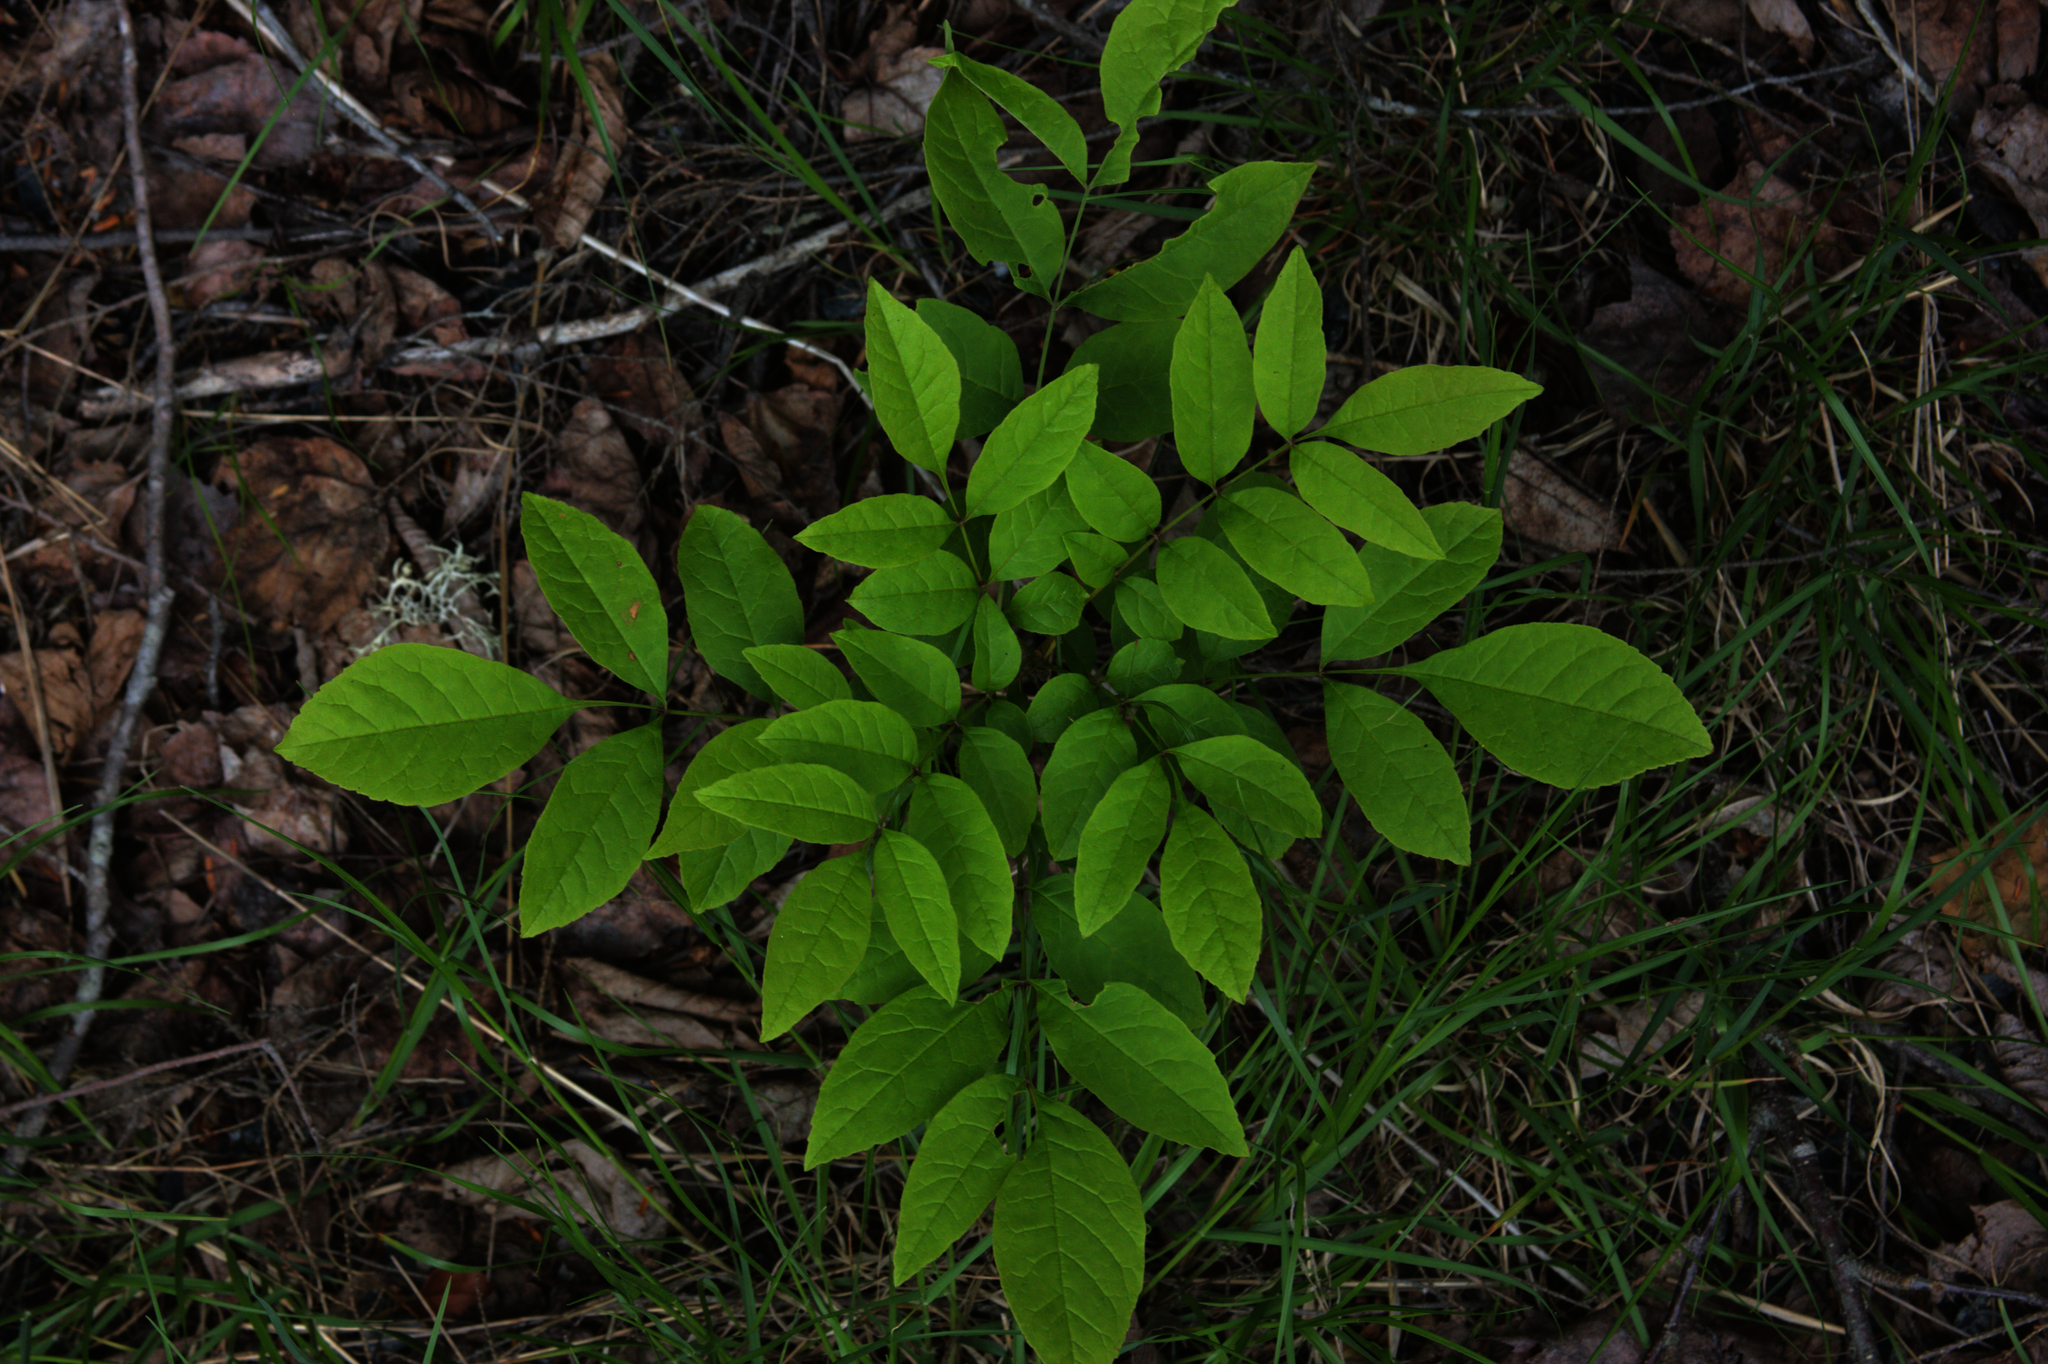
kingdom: Plantae
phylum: Tracheophyta
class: Magnoliopsida
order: Lamiales
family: Oleaceae
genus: Fraxinus
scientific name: Fraxinus americana
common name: White ash
